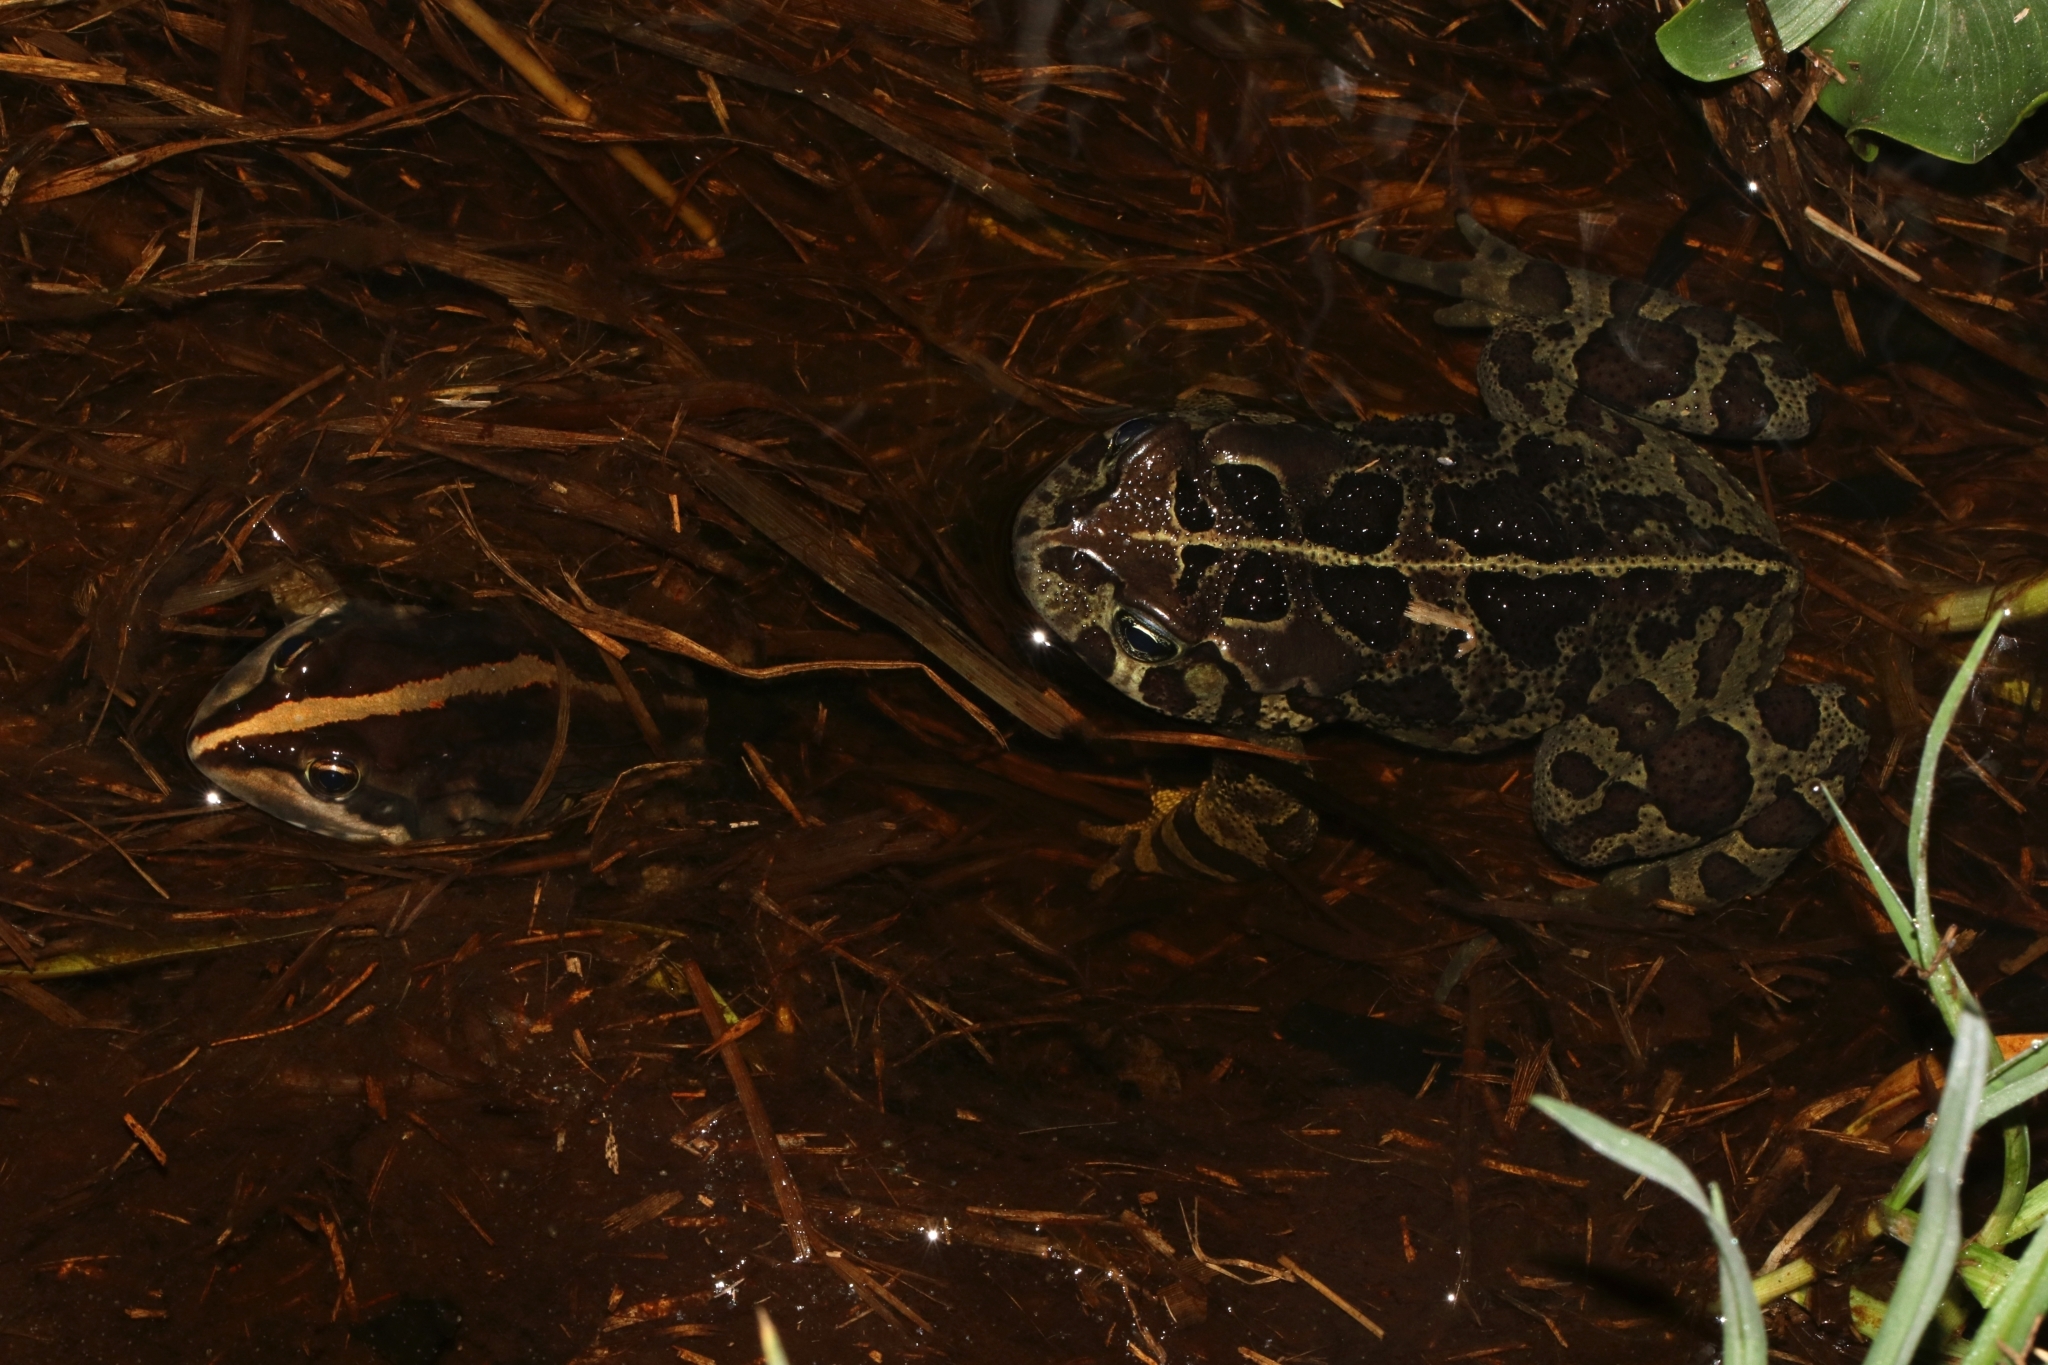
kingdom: Animalia
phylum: Chordata
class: Amphibia
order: Anura
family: Pyxicephalidae
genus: Amietia
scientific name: Amietia fuscigula
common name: Cape rana
